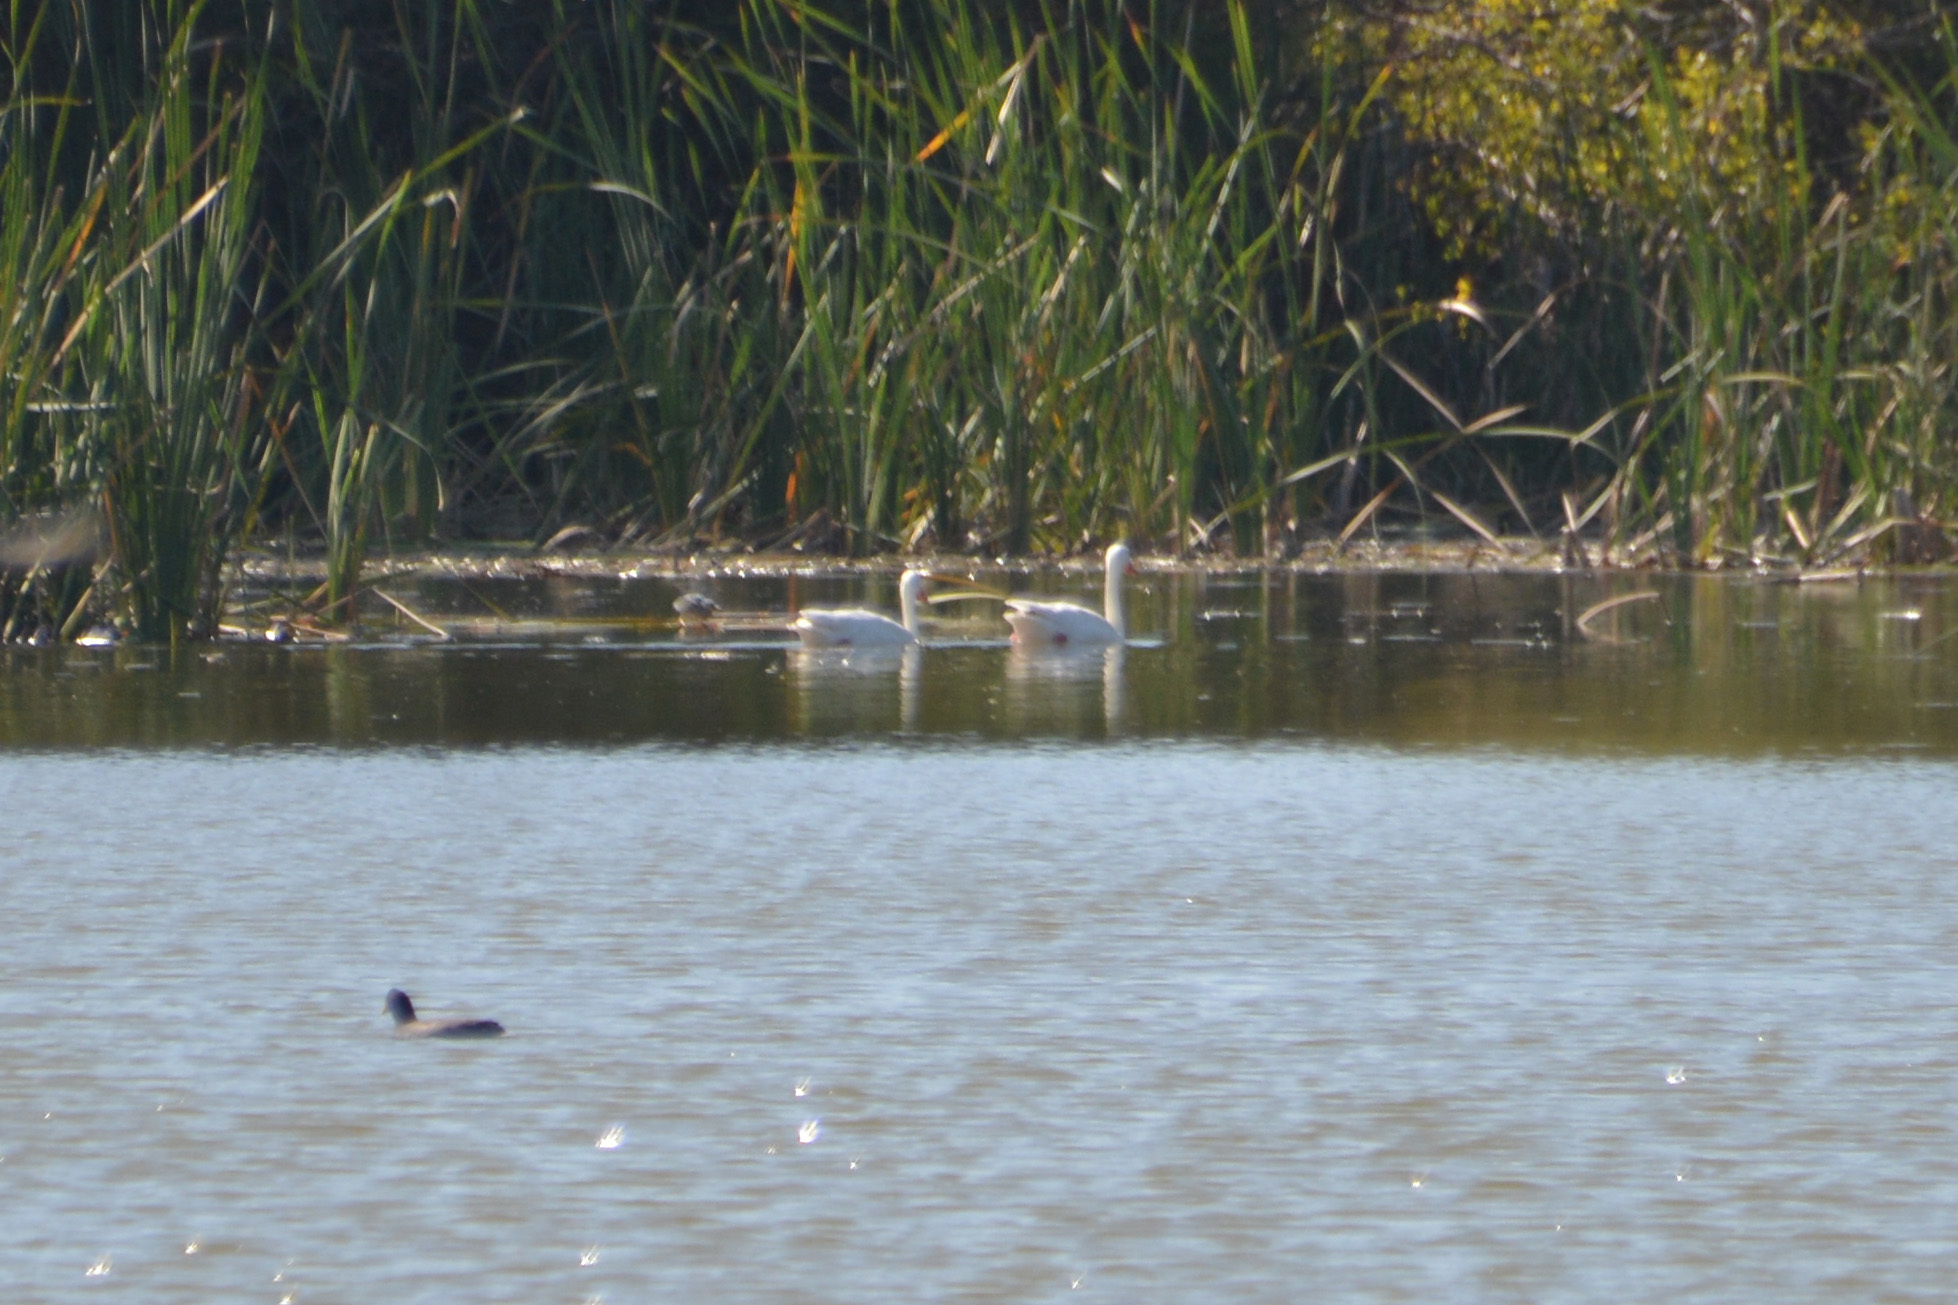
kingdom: Animalia
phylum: Chordata
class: Aves
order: Anseriformes
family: Anatidae
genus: Coscoroba
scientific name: Coscoroba coscoroba
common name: Coscoroba swan
